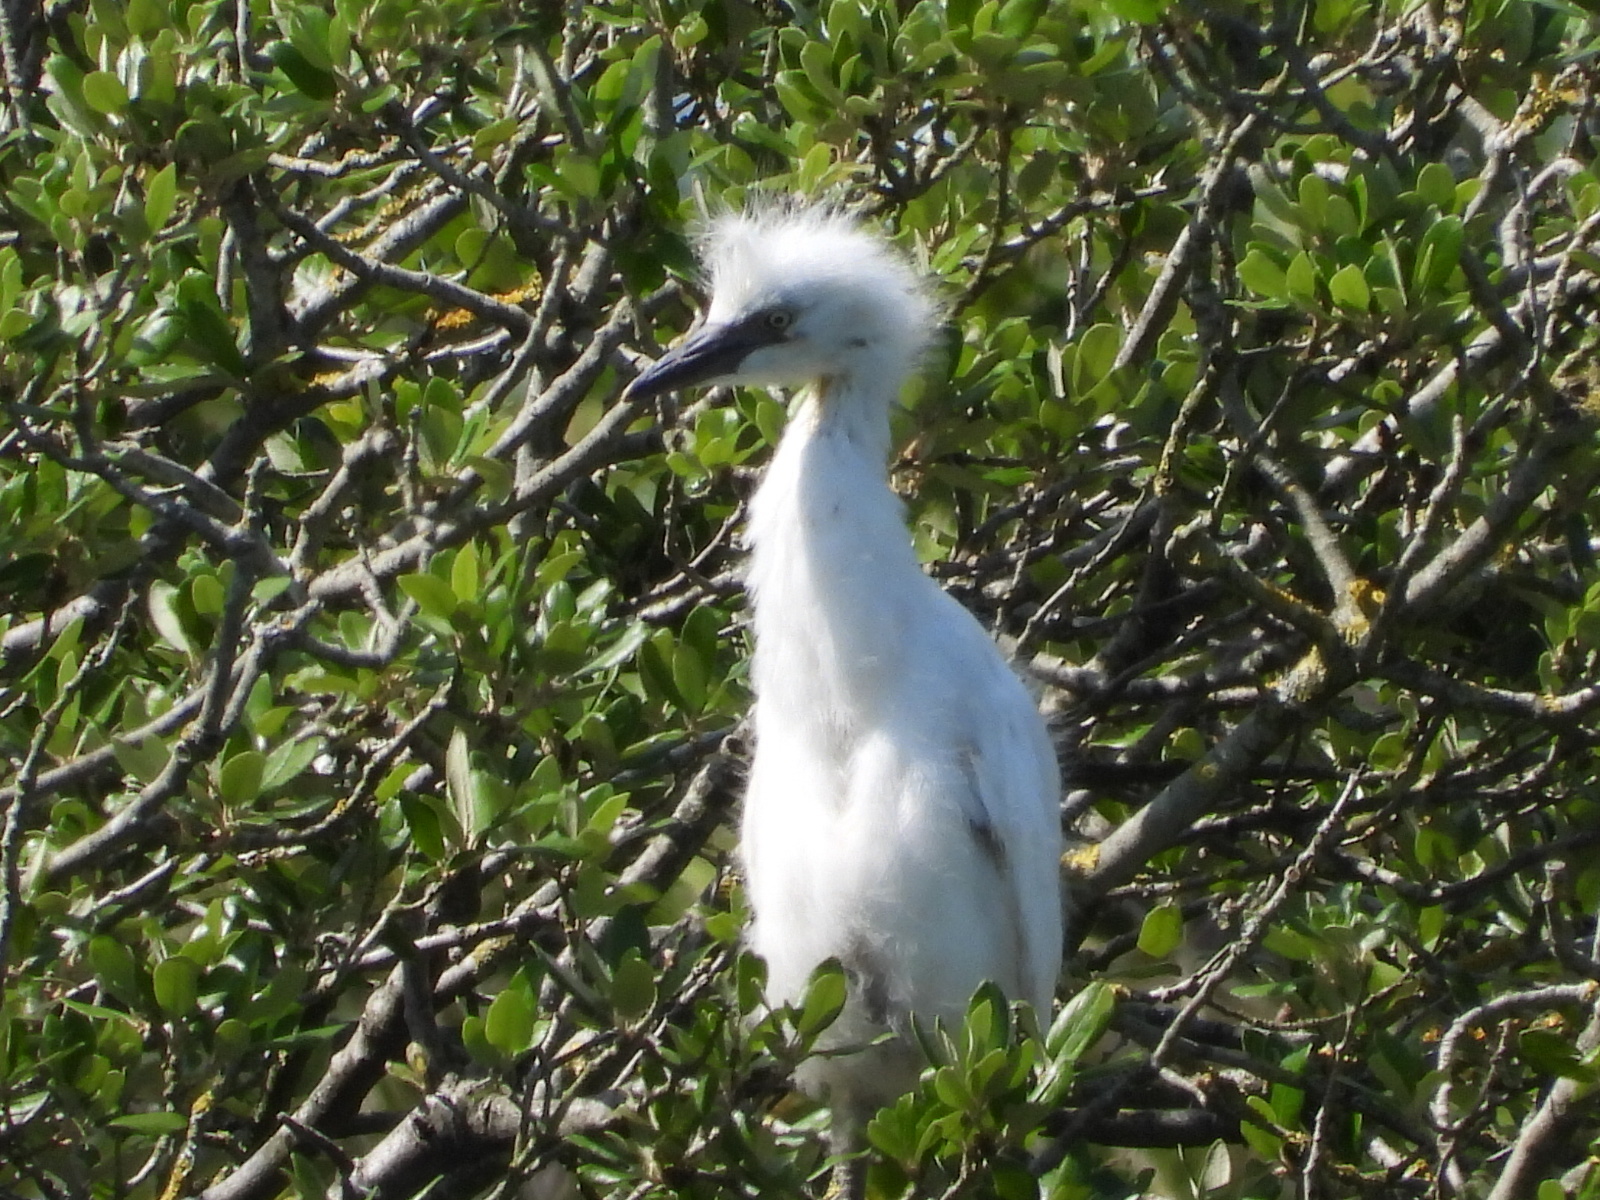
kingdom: Animalia
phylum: Chordata
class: Aves
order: Pelecaniformes
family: Ardeidae
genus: Egretta
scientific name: Egretta garzetta
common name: Little egret
